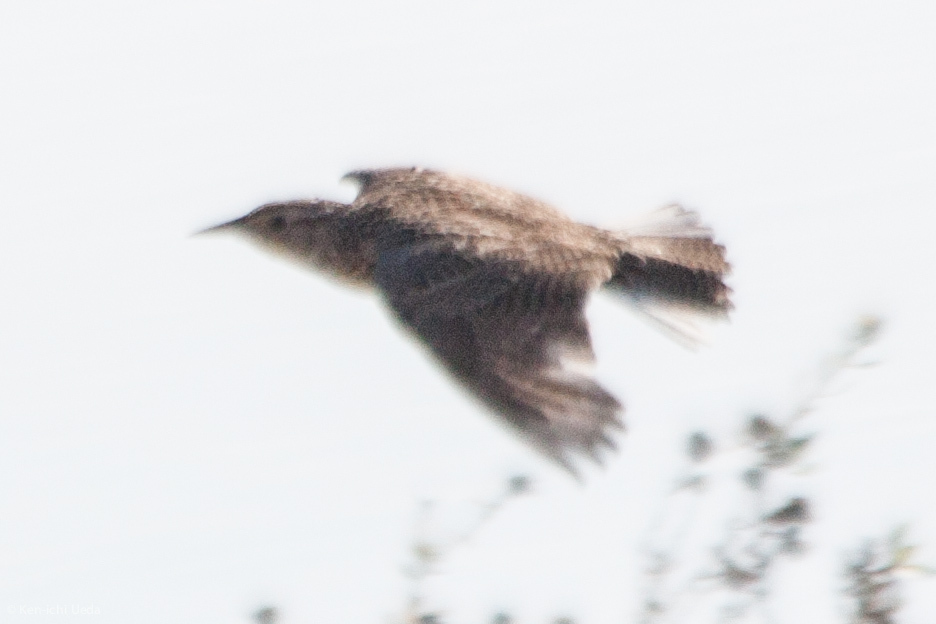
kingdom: Animalia
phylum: Chordata
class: Aves
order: Passeriformes
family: Icteridae
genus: Sturnella
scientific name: Sturnella neglecta
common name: Western meadowlark
